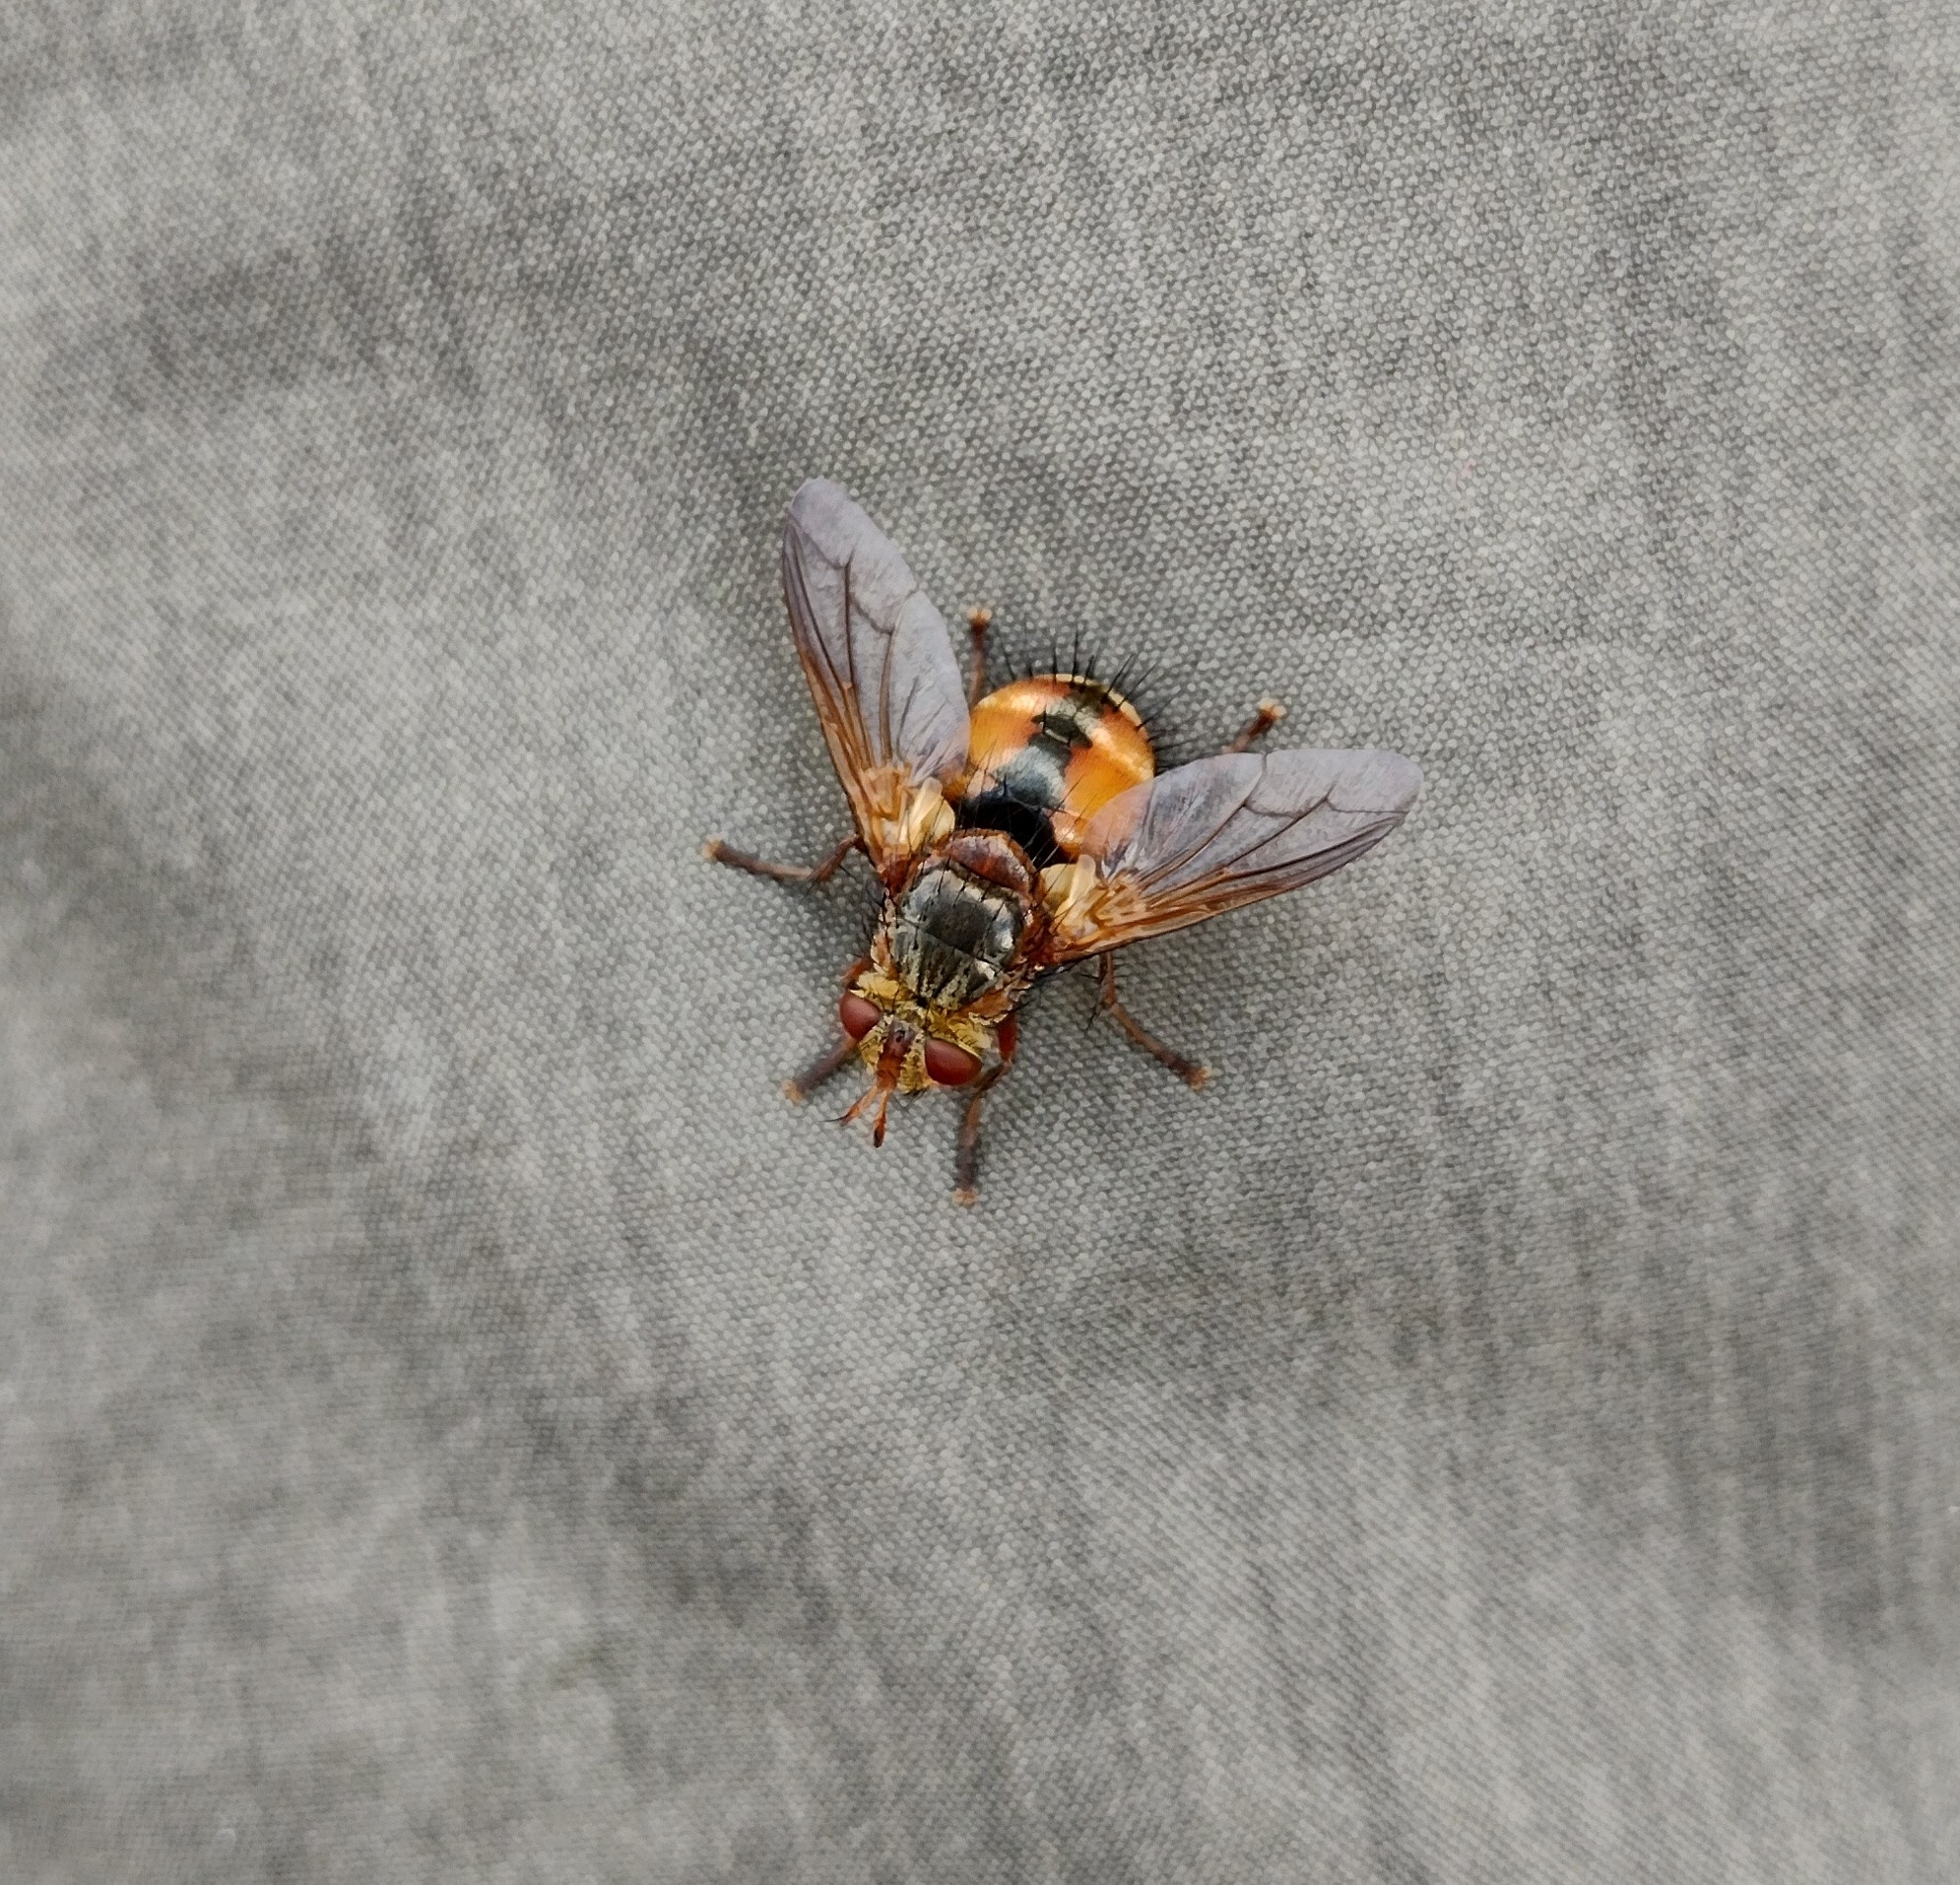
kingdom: Animalia
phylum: Arthropoda
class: Insecta
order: Diptera
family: Tachinidae
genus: Tachina
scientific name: Tachina fera
